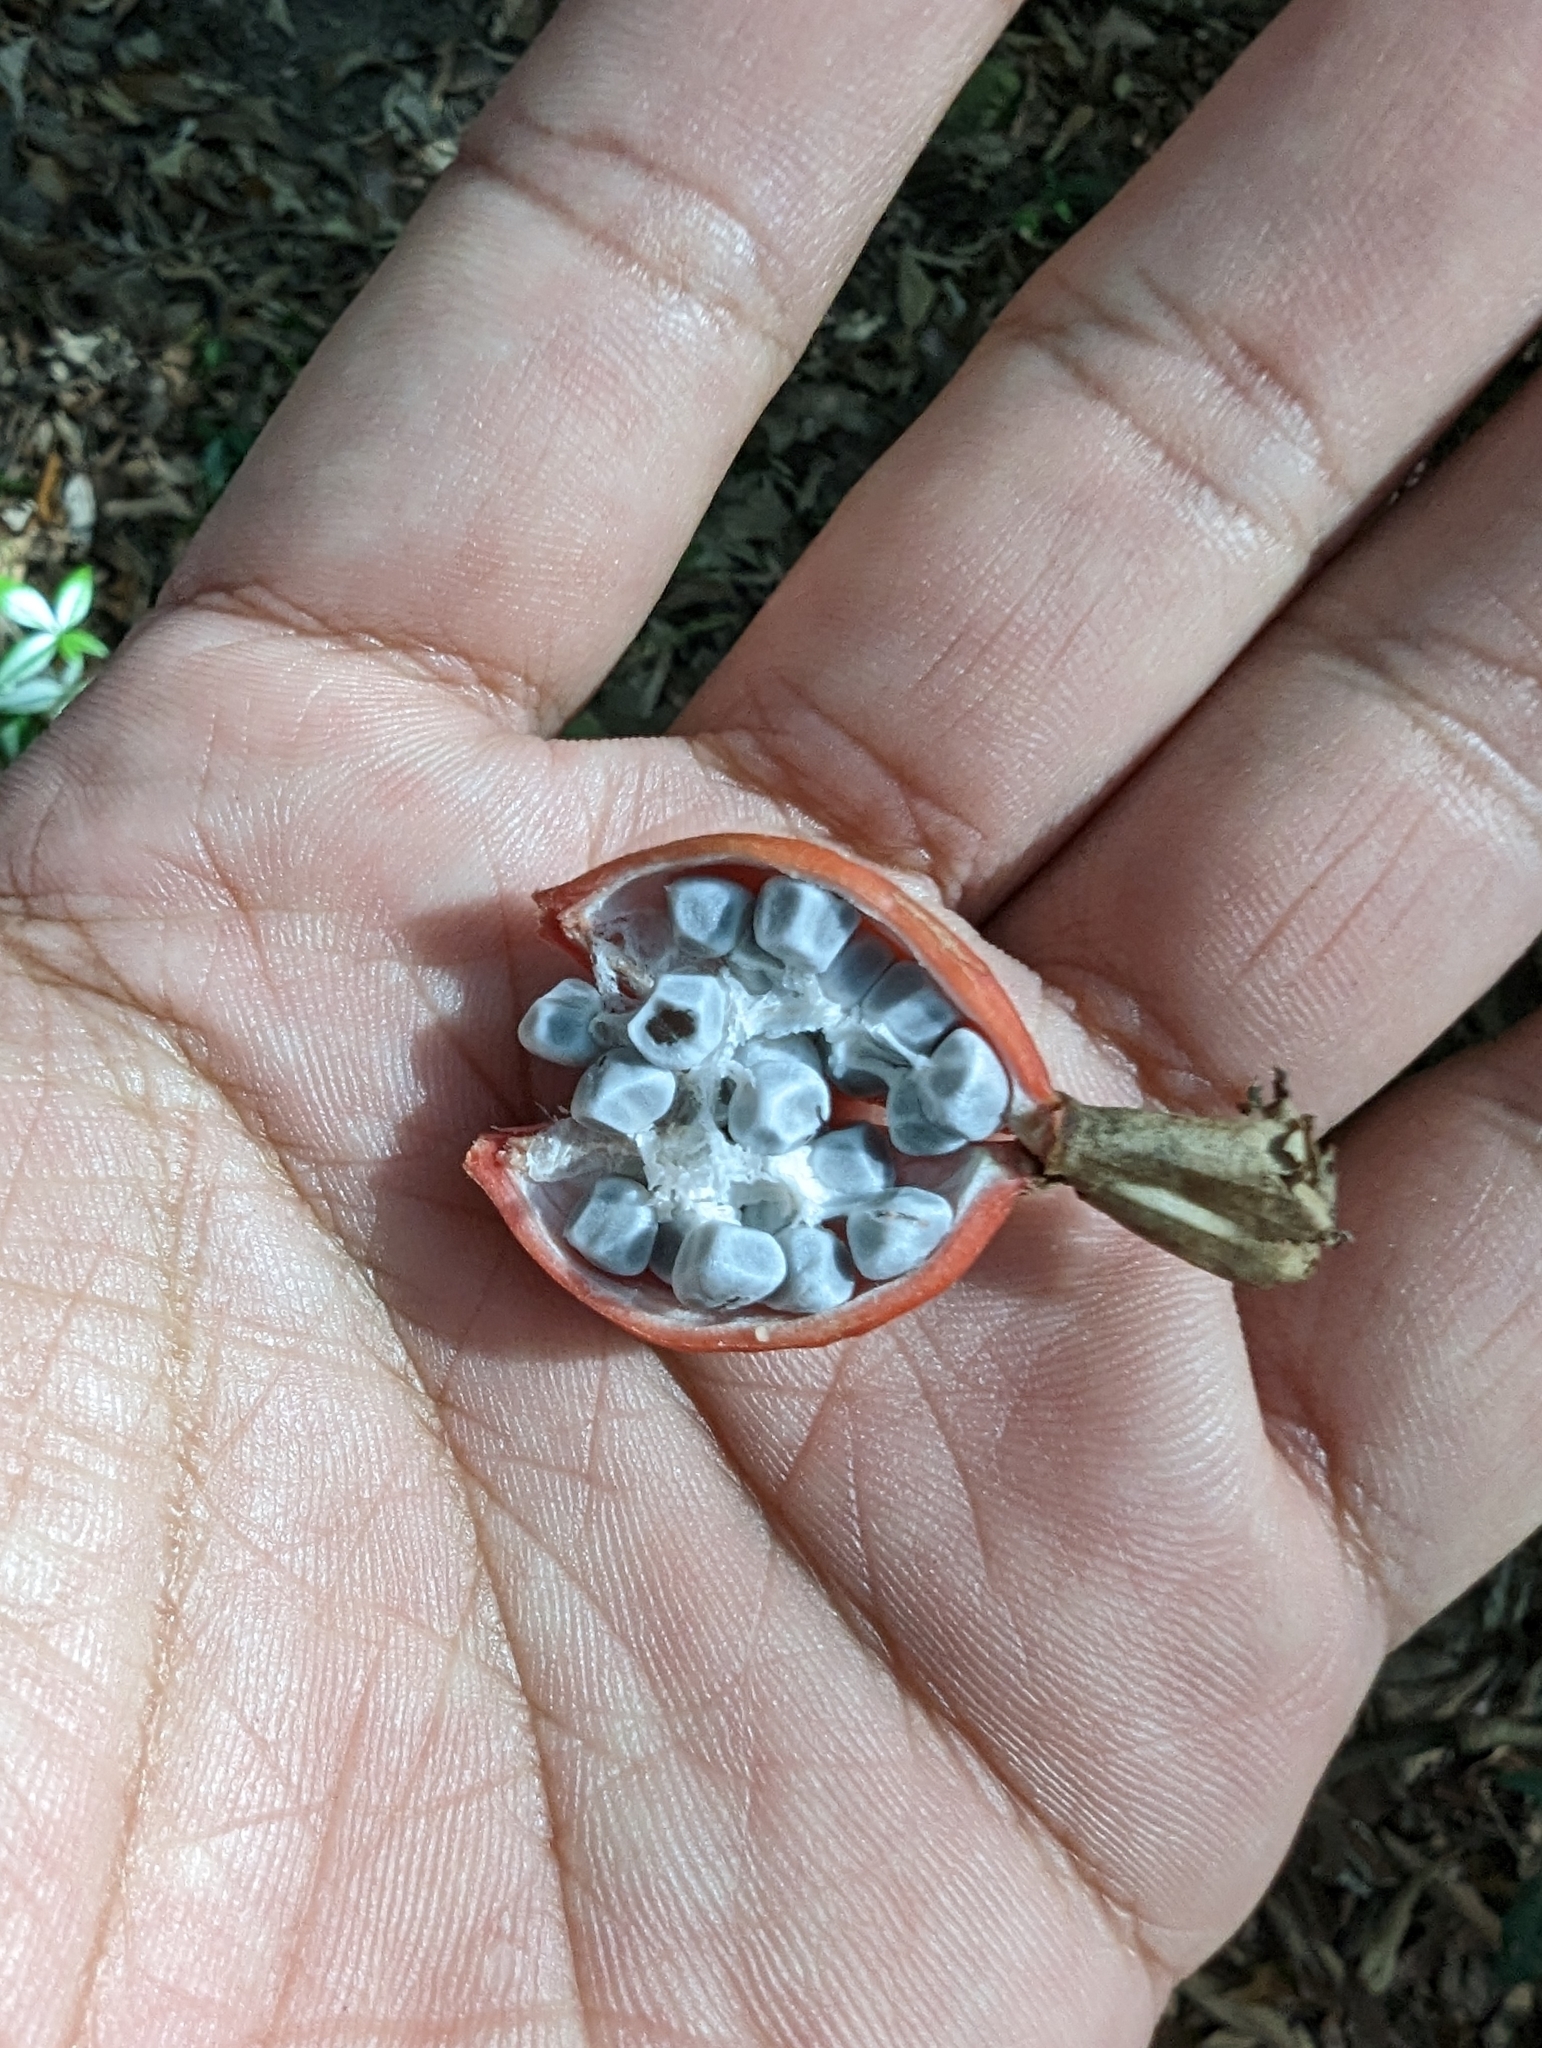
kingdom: Plantae
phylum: Tracheophyta
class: Liliopsida
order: Zingiberales
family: Zingiberaceae
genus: Alpinia
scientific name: Alpinia zerumbet
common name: Shellplant
